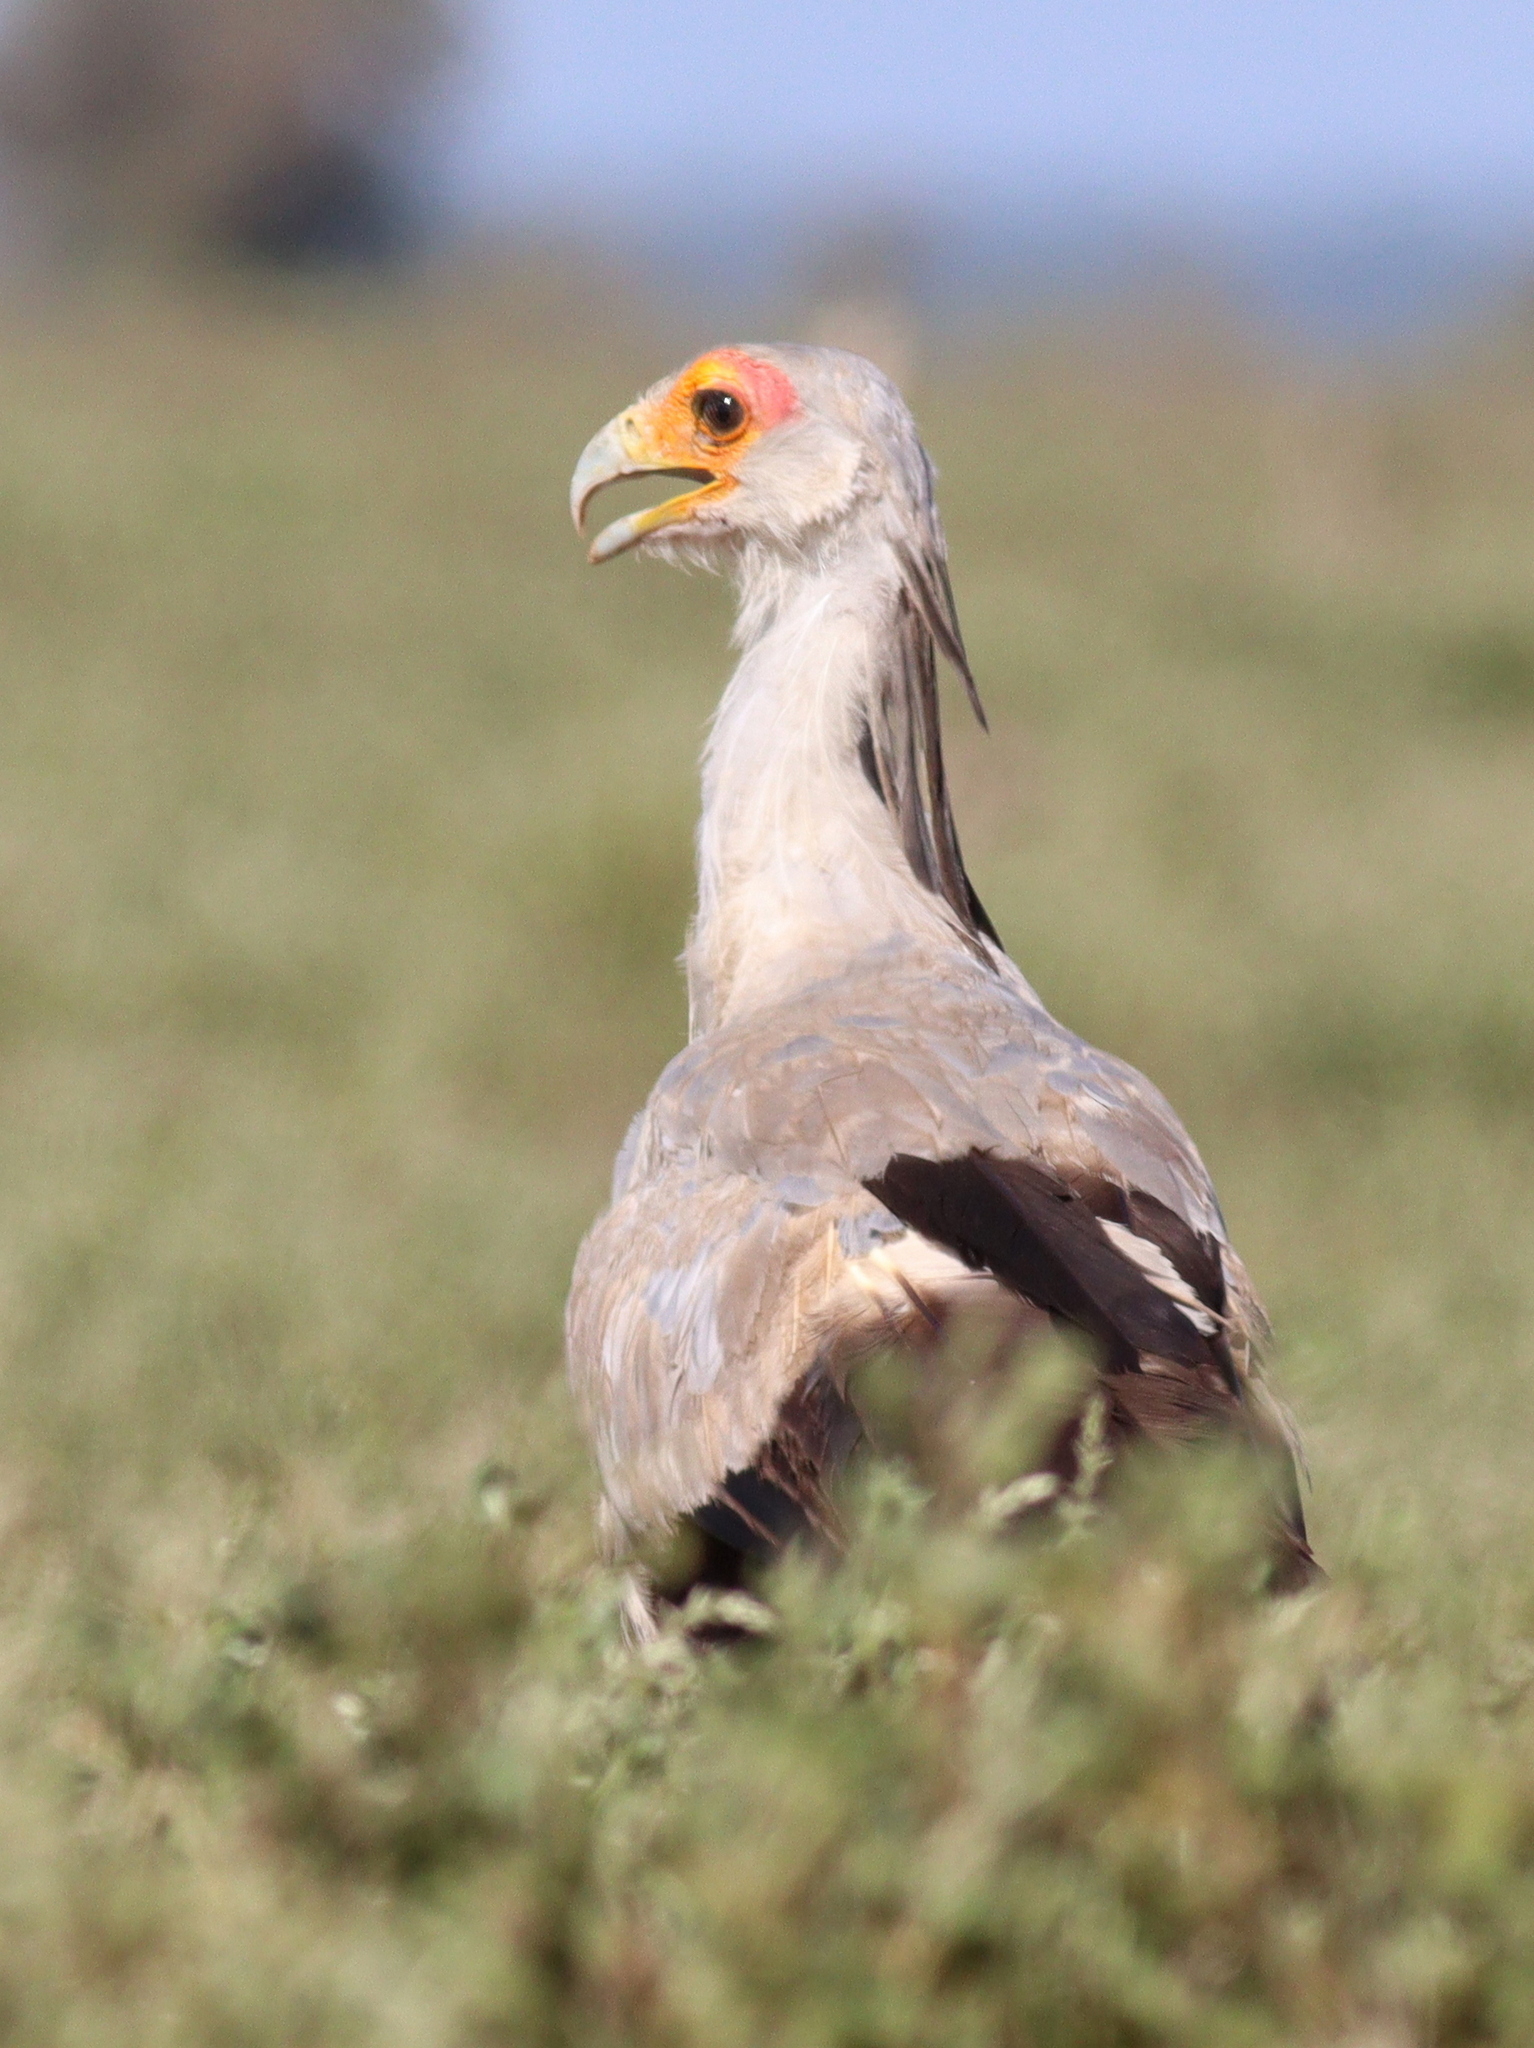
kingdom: Animalia
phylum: Chordata
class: Aves
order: Accipitriformes
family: Sagittariidae
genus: Sagittarius
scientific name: Sagittarius serpentarius
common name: Secretarybird
